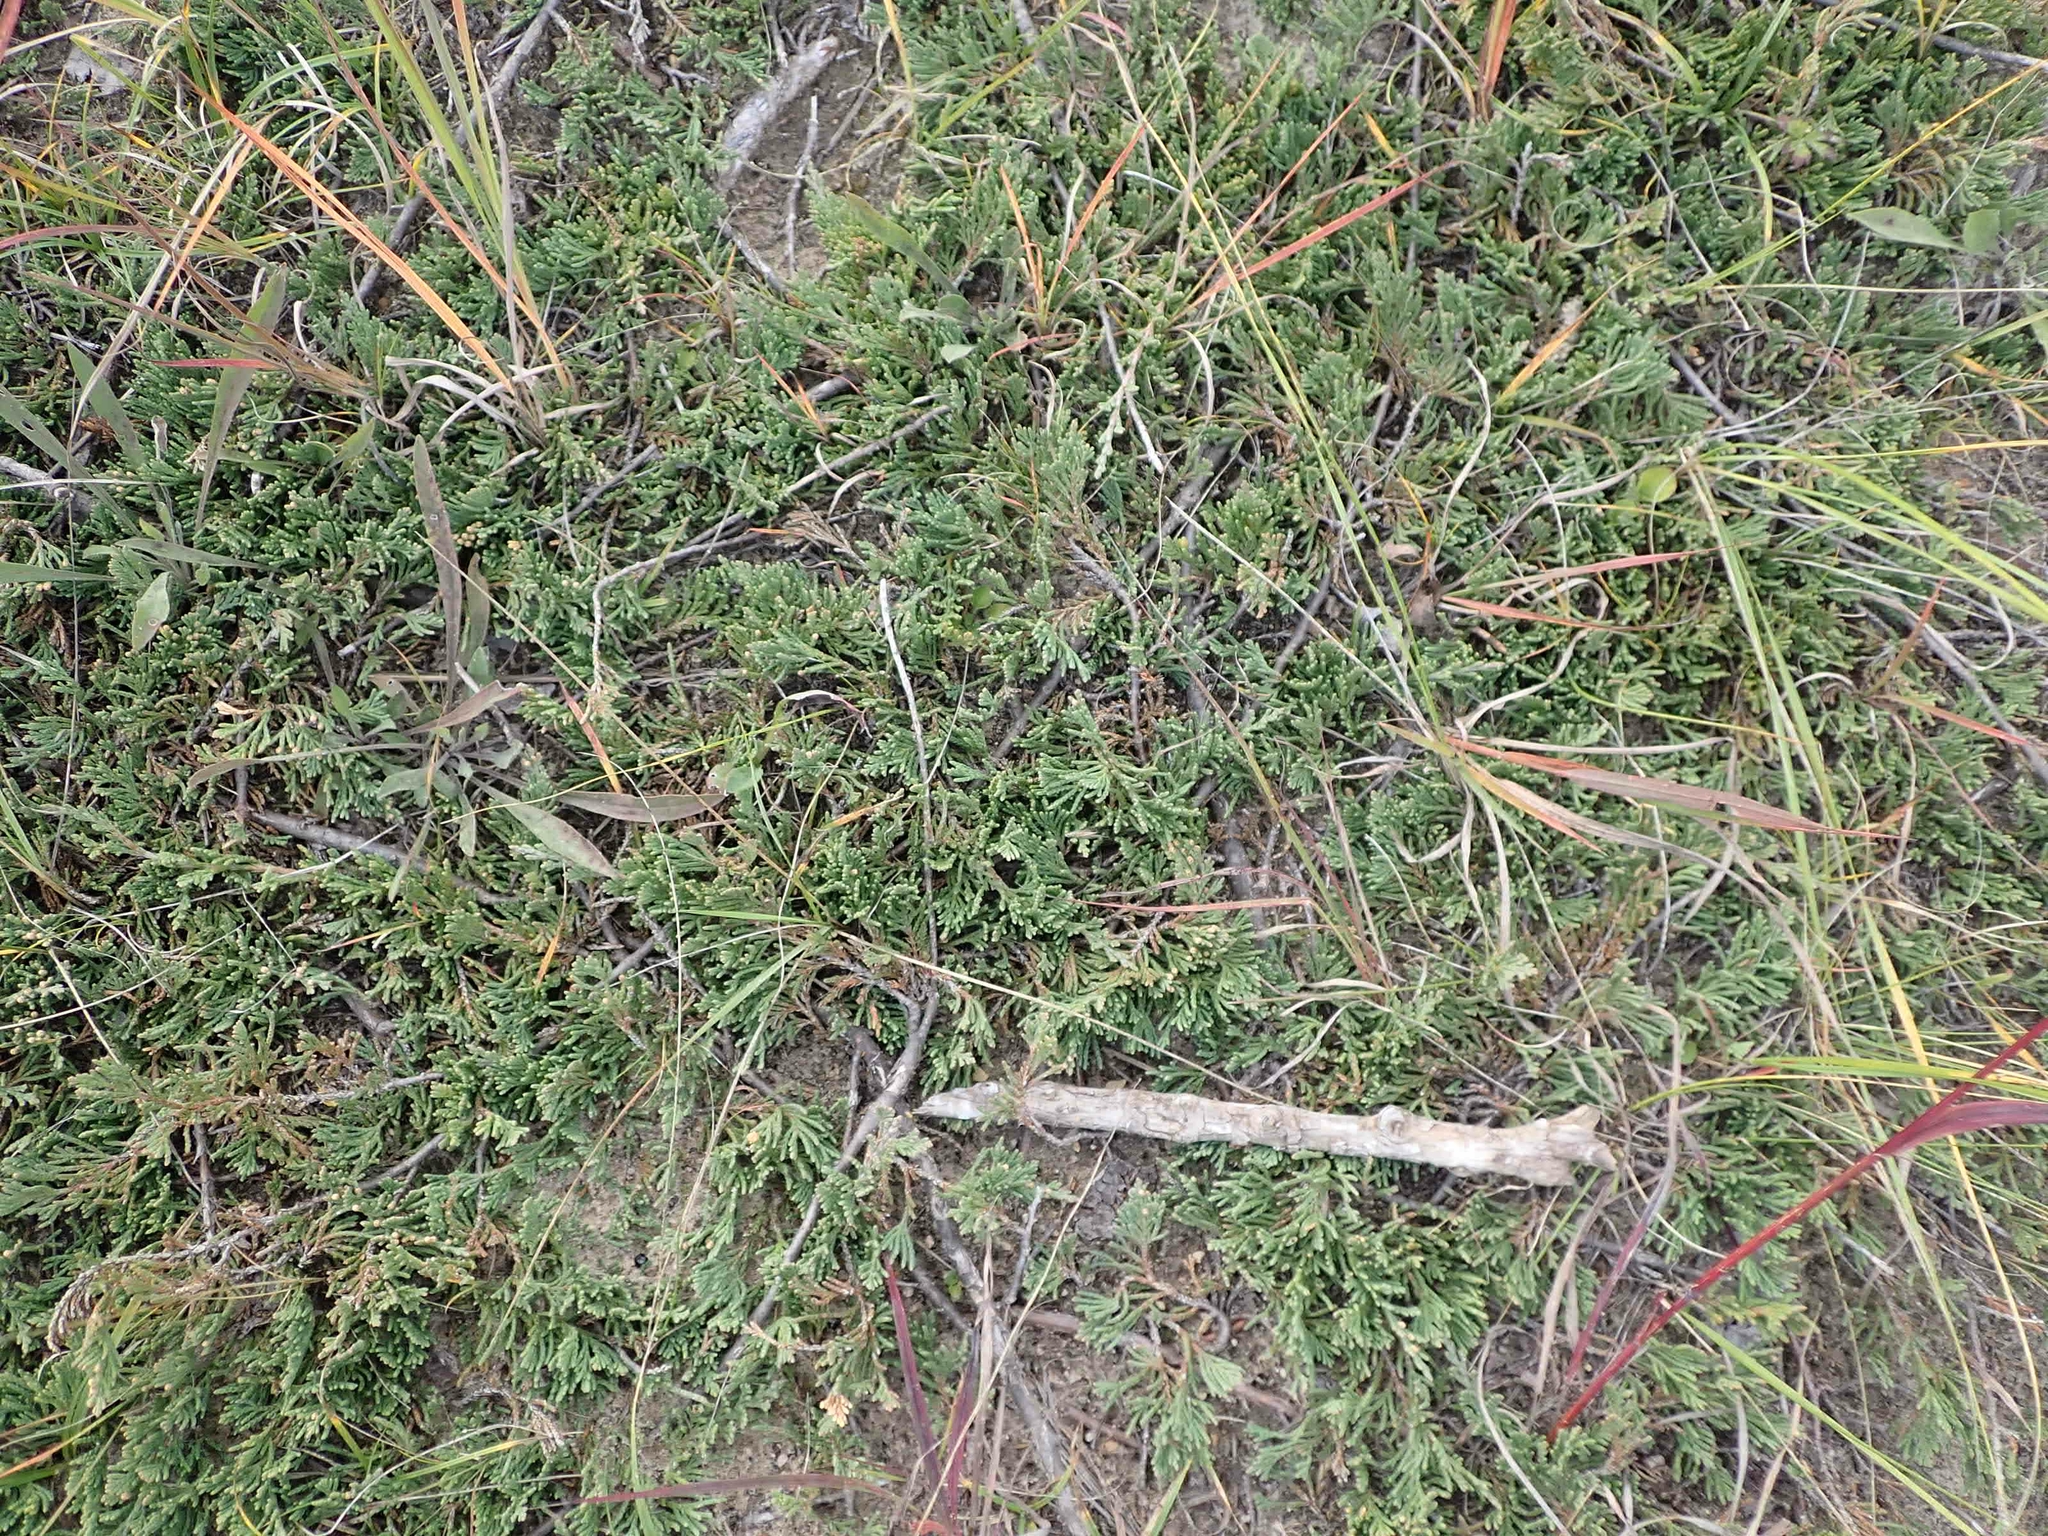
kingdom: Plantae
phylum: Tracheophyta
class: Pinopsida
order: Pinales
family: Cupressaceae
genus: Juniperus
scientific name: Juniperus horizontalis
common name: Creeping juniper
